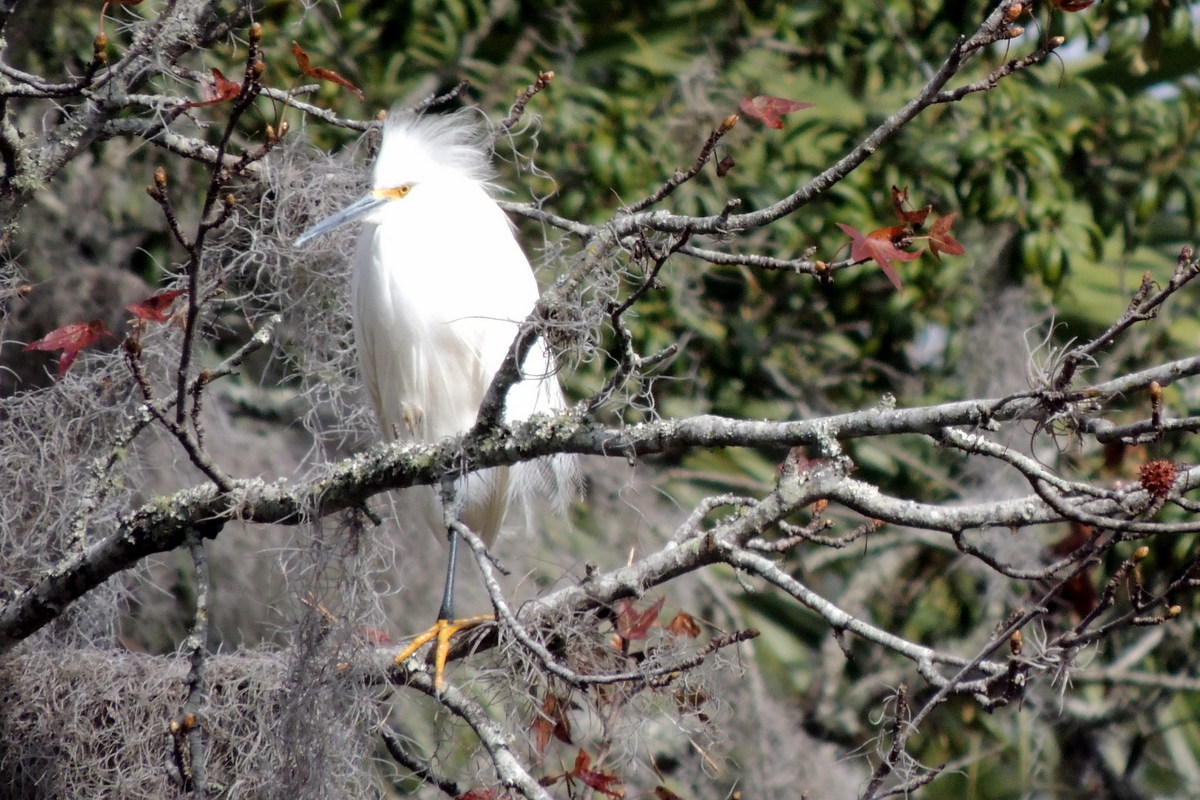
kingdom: Animalia
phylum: Chordata
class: Aves
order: Pelecaniformes
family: Ardeidae
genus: Egretta
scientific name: Egretta thula
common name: Snowy egret
